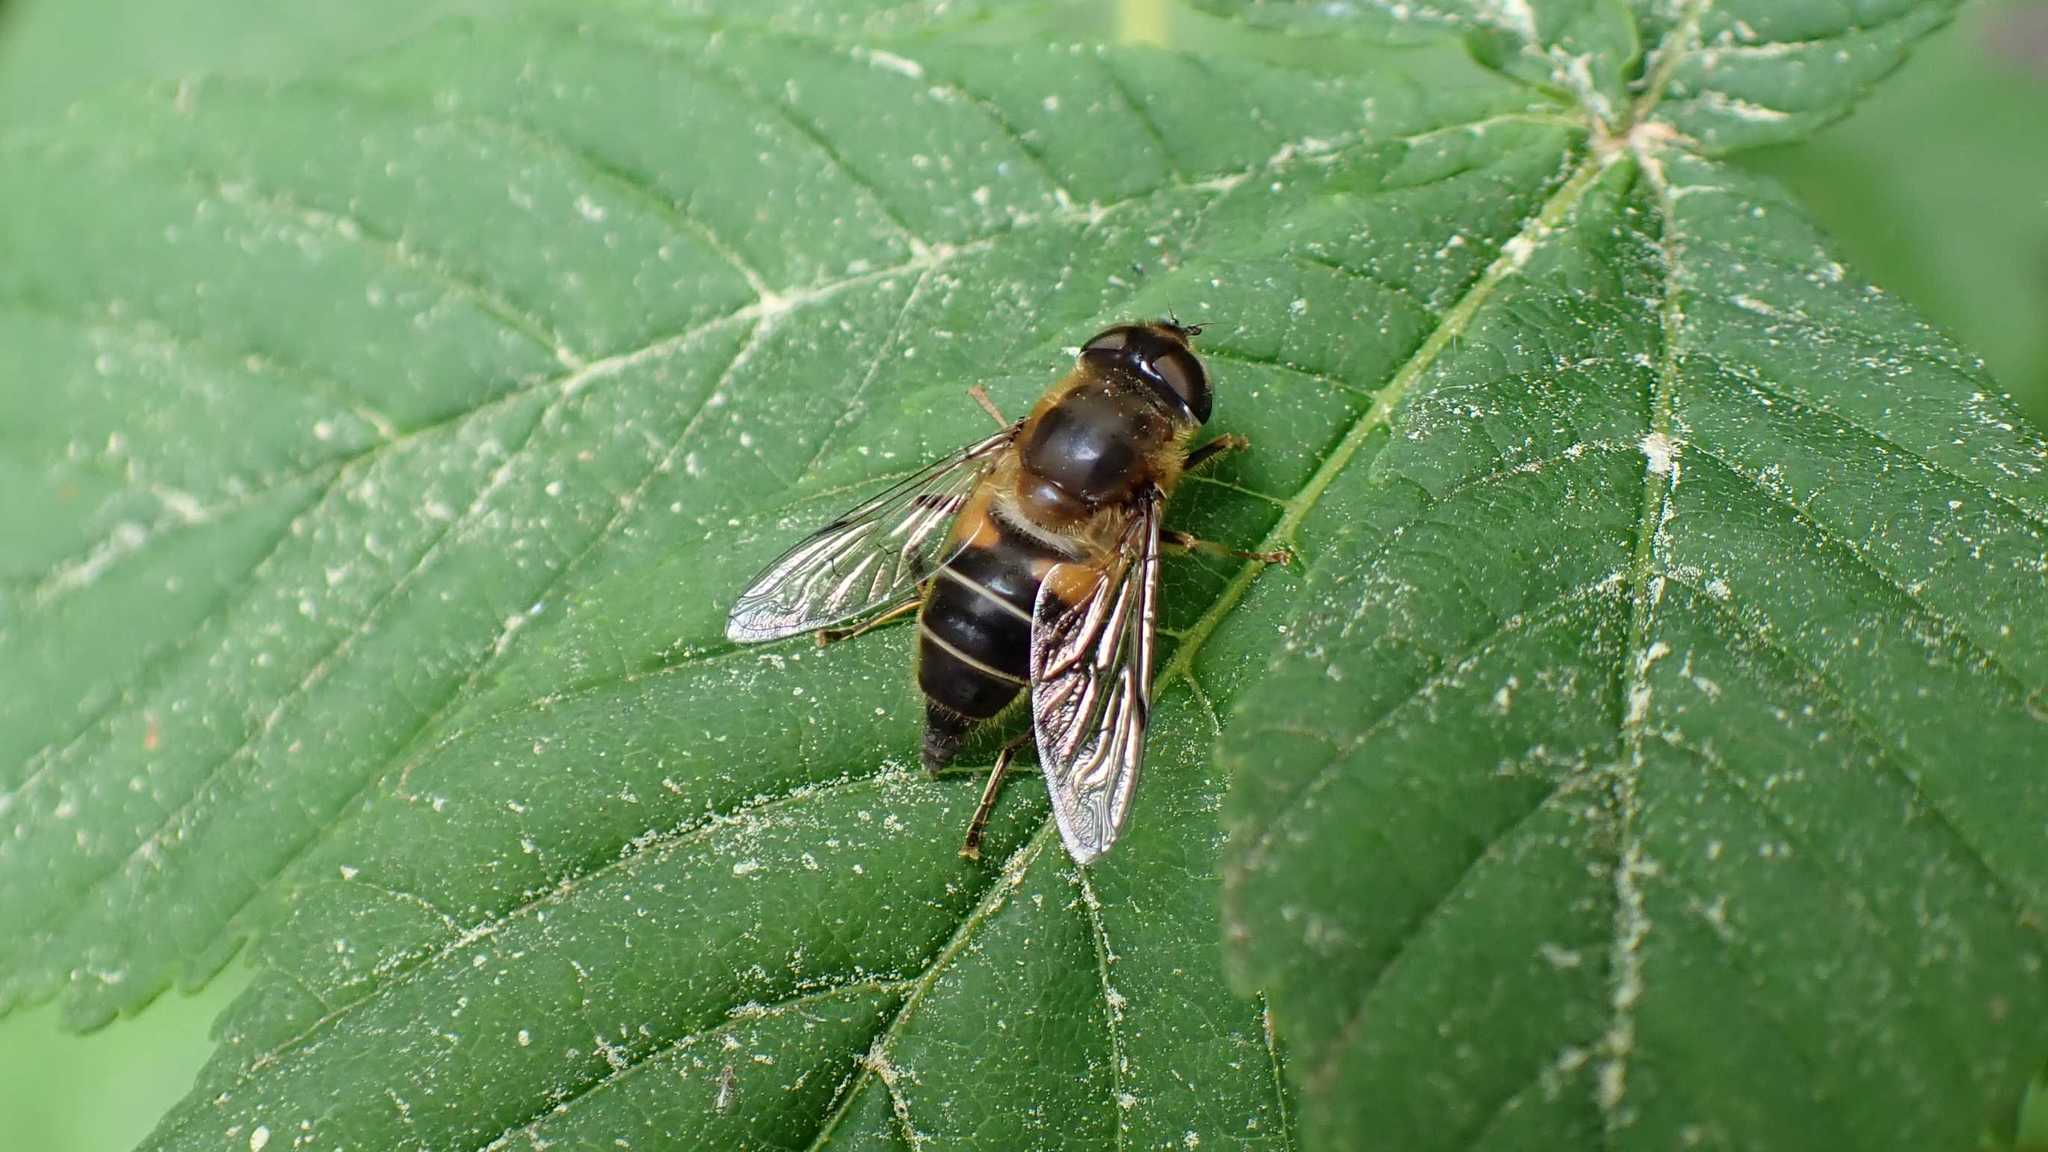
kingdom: Animalia
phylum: Arthropoda
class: Insecta
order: Diptera
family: Syrphidae
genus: Eristalis
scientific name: Eristalis pertinax
